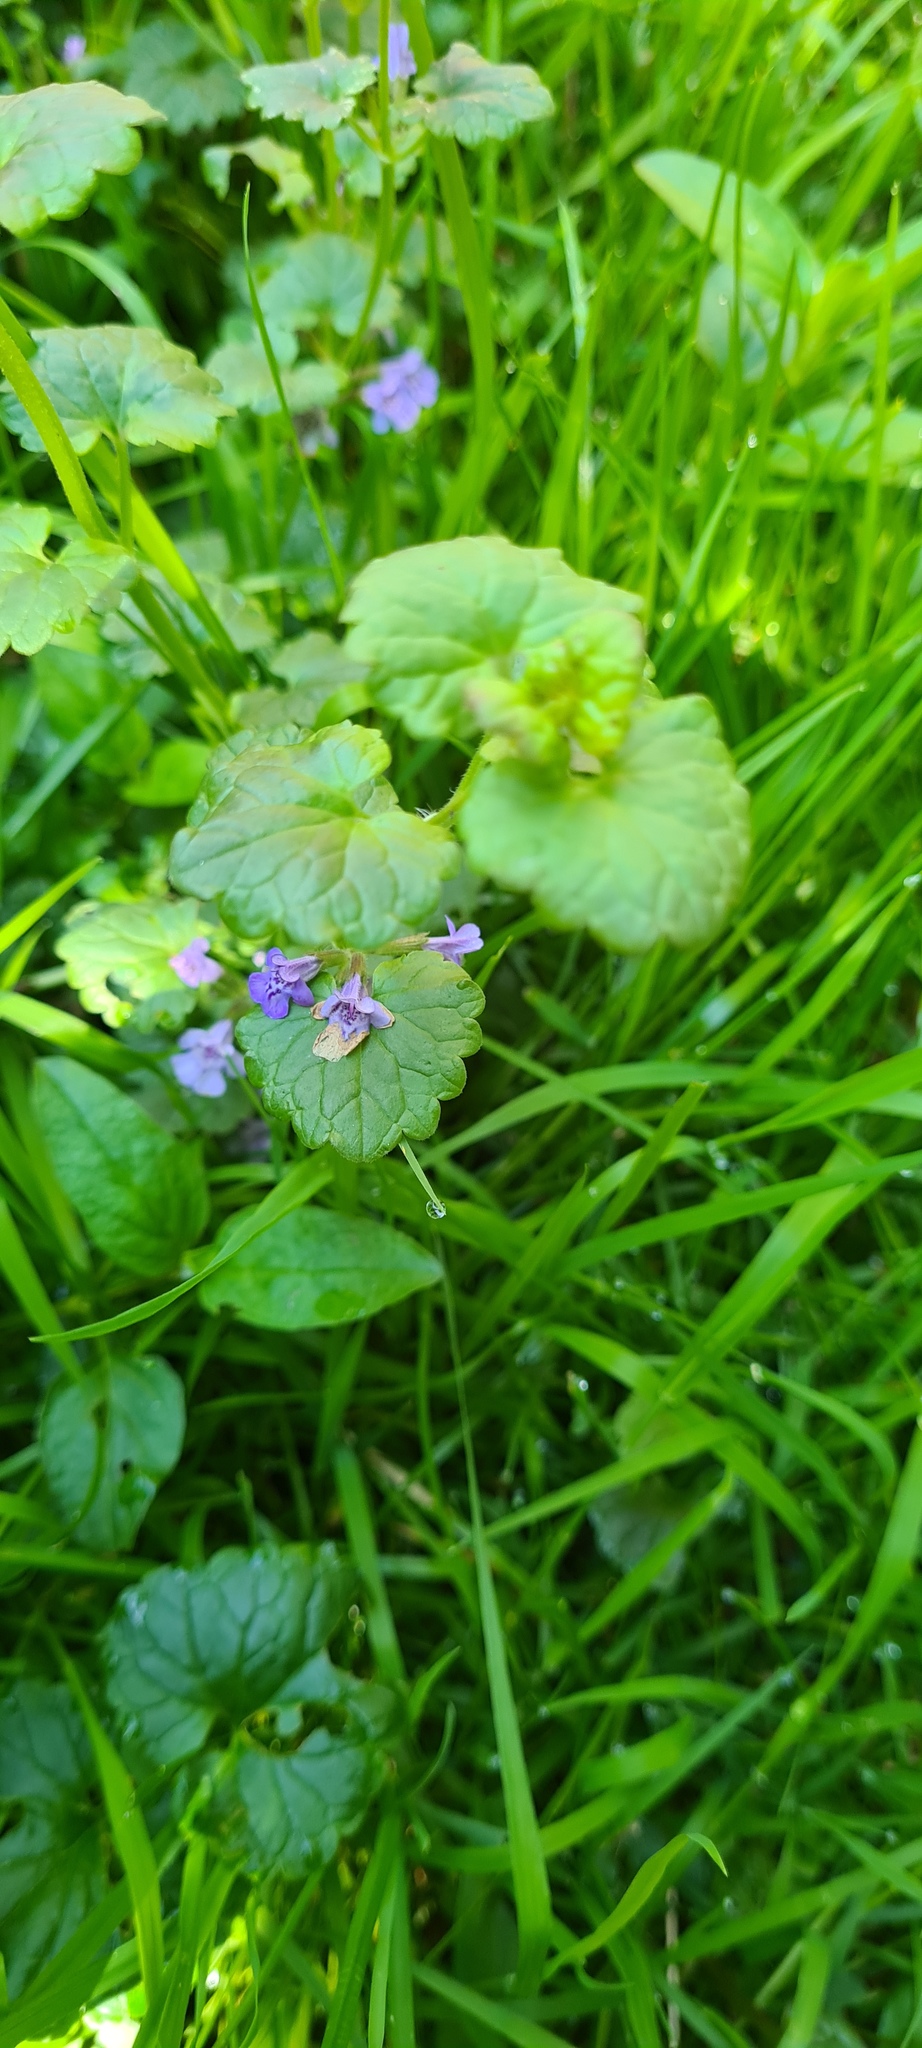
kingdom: Plantae
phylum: Tracheophyta
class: Magnoliopsida
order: Lamiales
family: Lamiaceae
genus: Glechoma
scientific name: Glechoma hederacea
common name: Ground ivy
